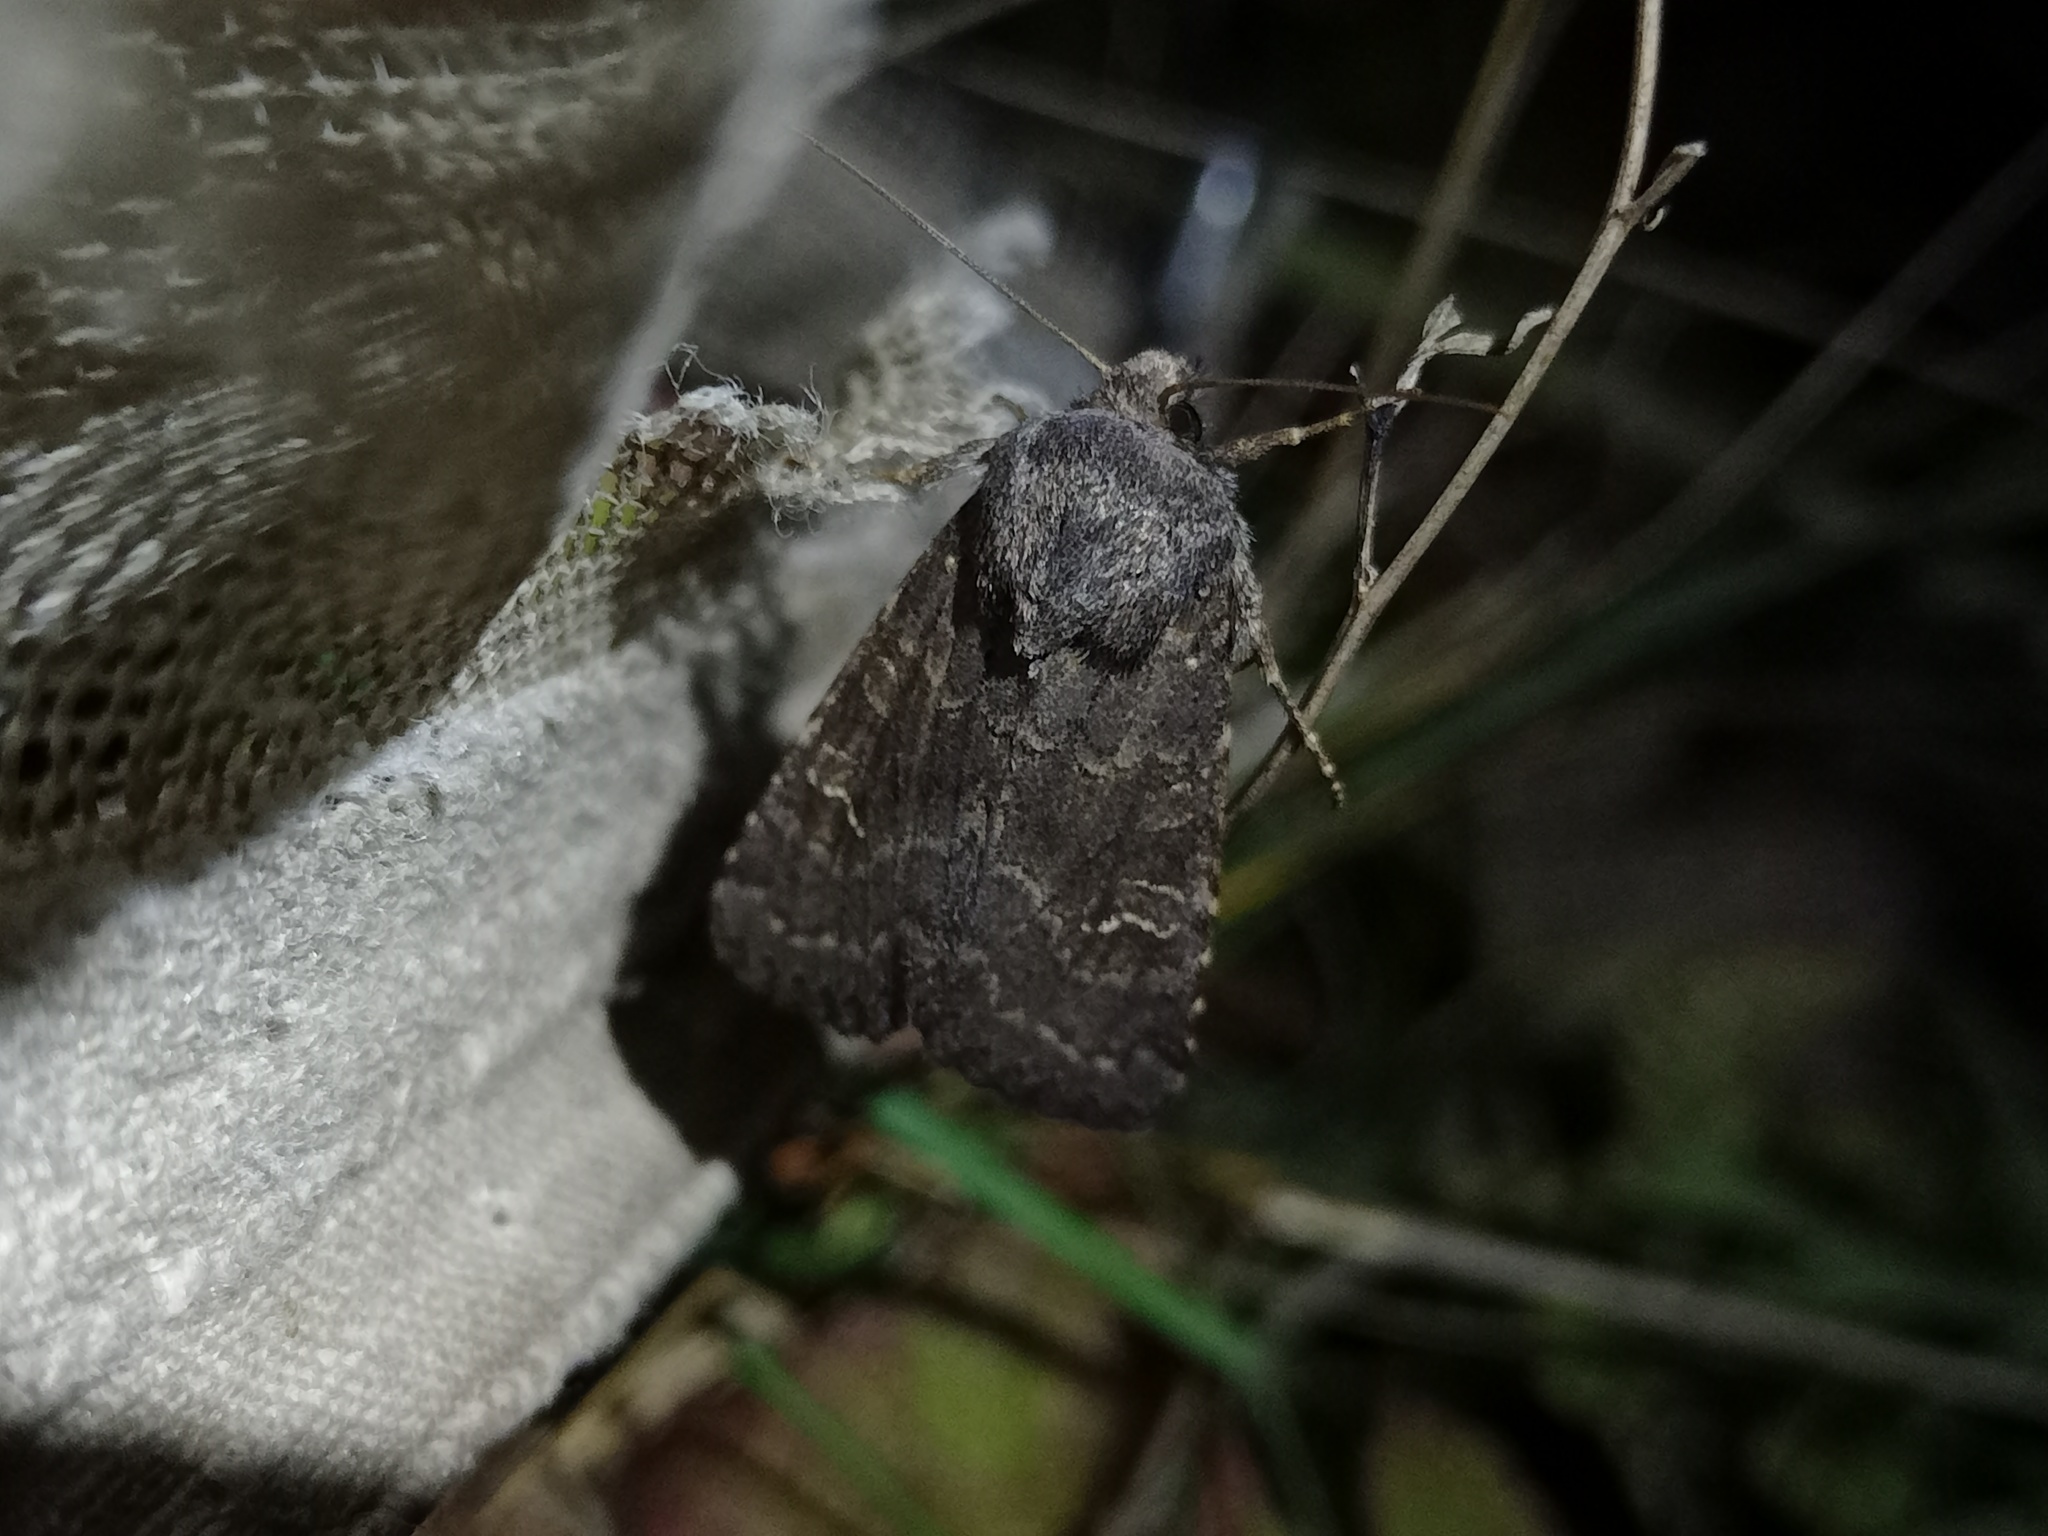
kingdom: Animalia
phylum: Arthropoda
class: Insecta
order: Lepidoptera
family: Noctuidae
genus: Aporophyla
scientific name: Aporophyla lutulenta
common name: Deep-brown dart
